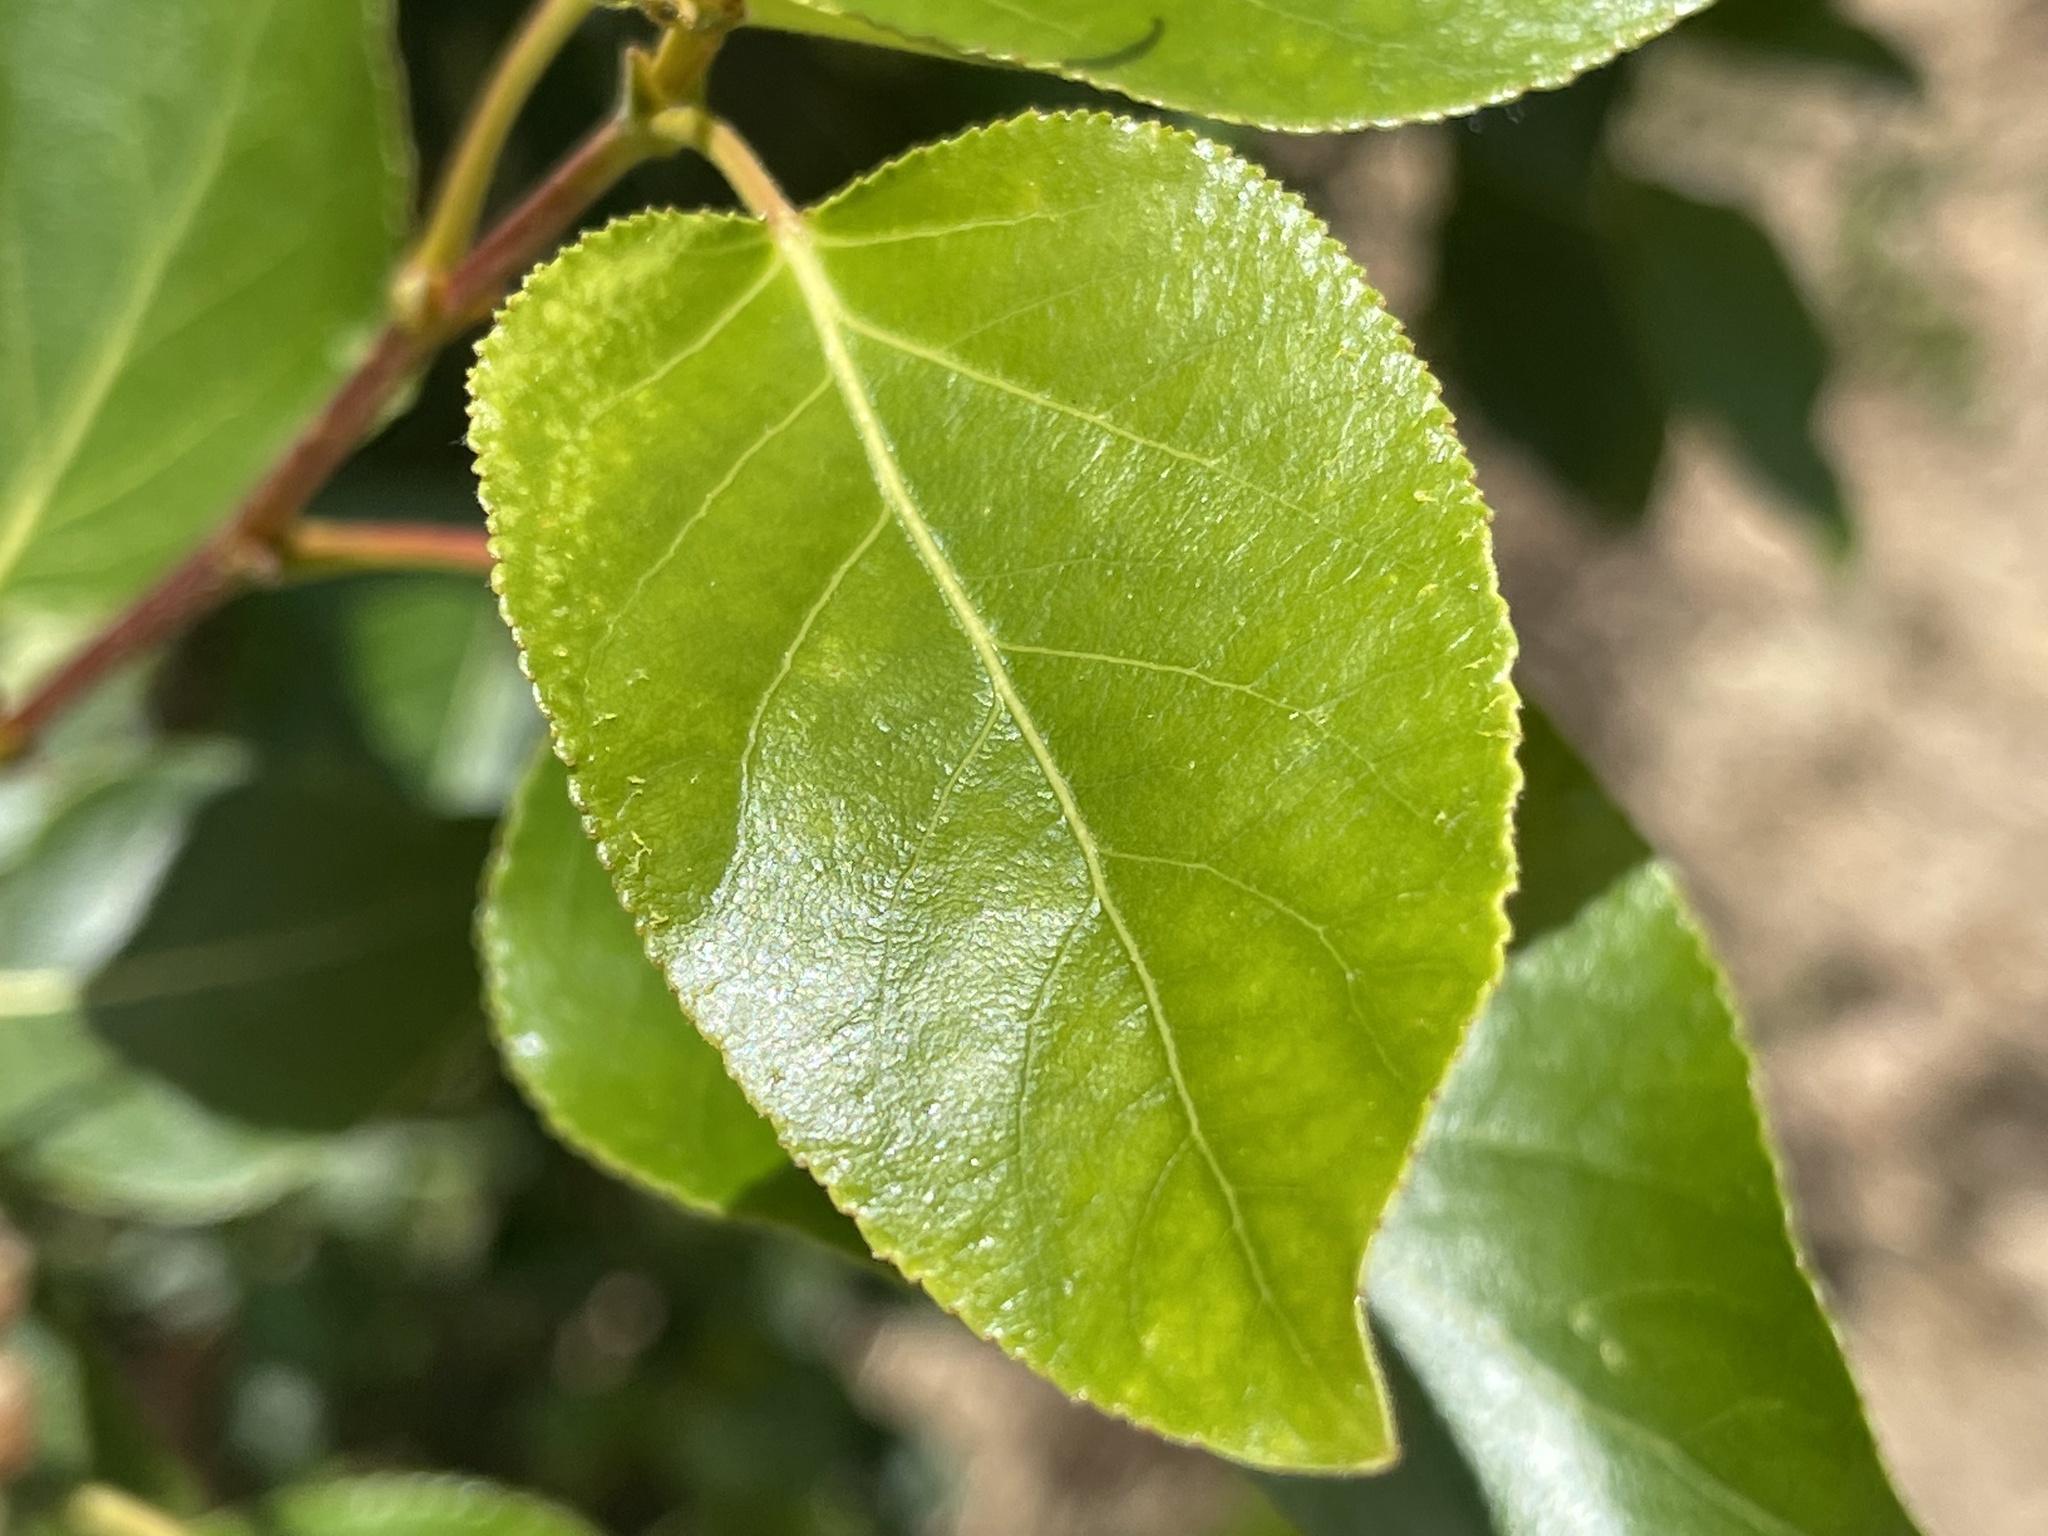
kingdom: Plantae
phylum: Tracheophyta
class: Magnoliopsida
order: Malpighiales
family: Salicaceae
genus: Populus
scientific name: Populus trichocarpa
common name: Black cottonwood
